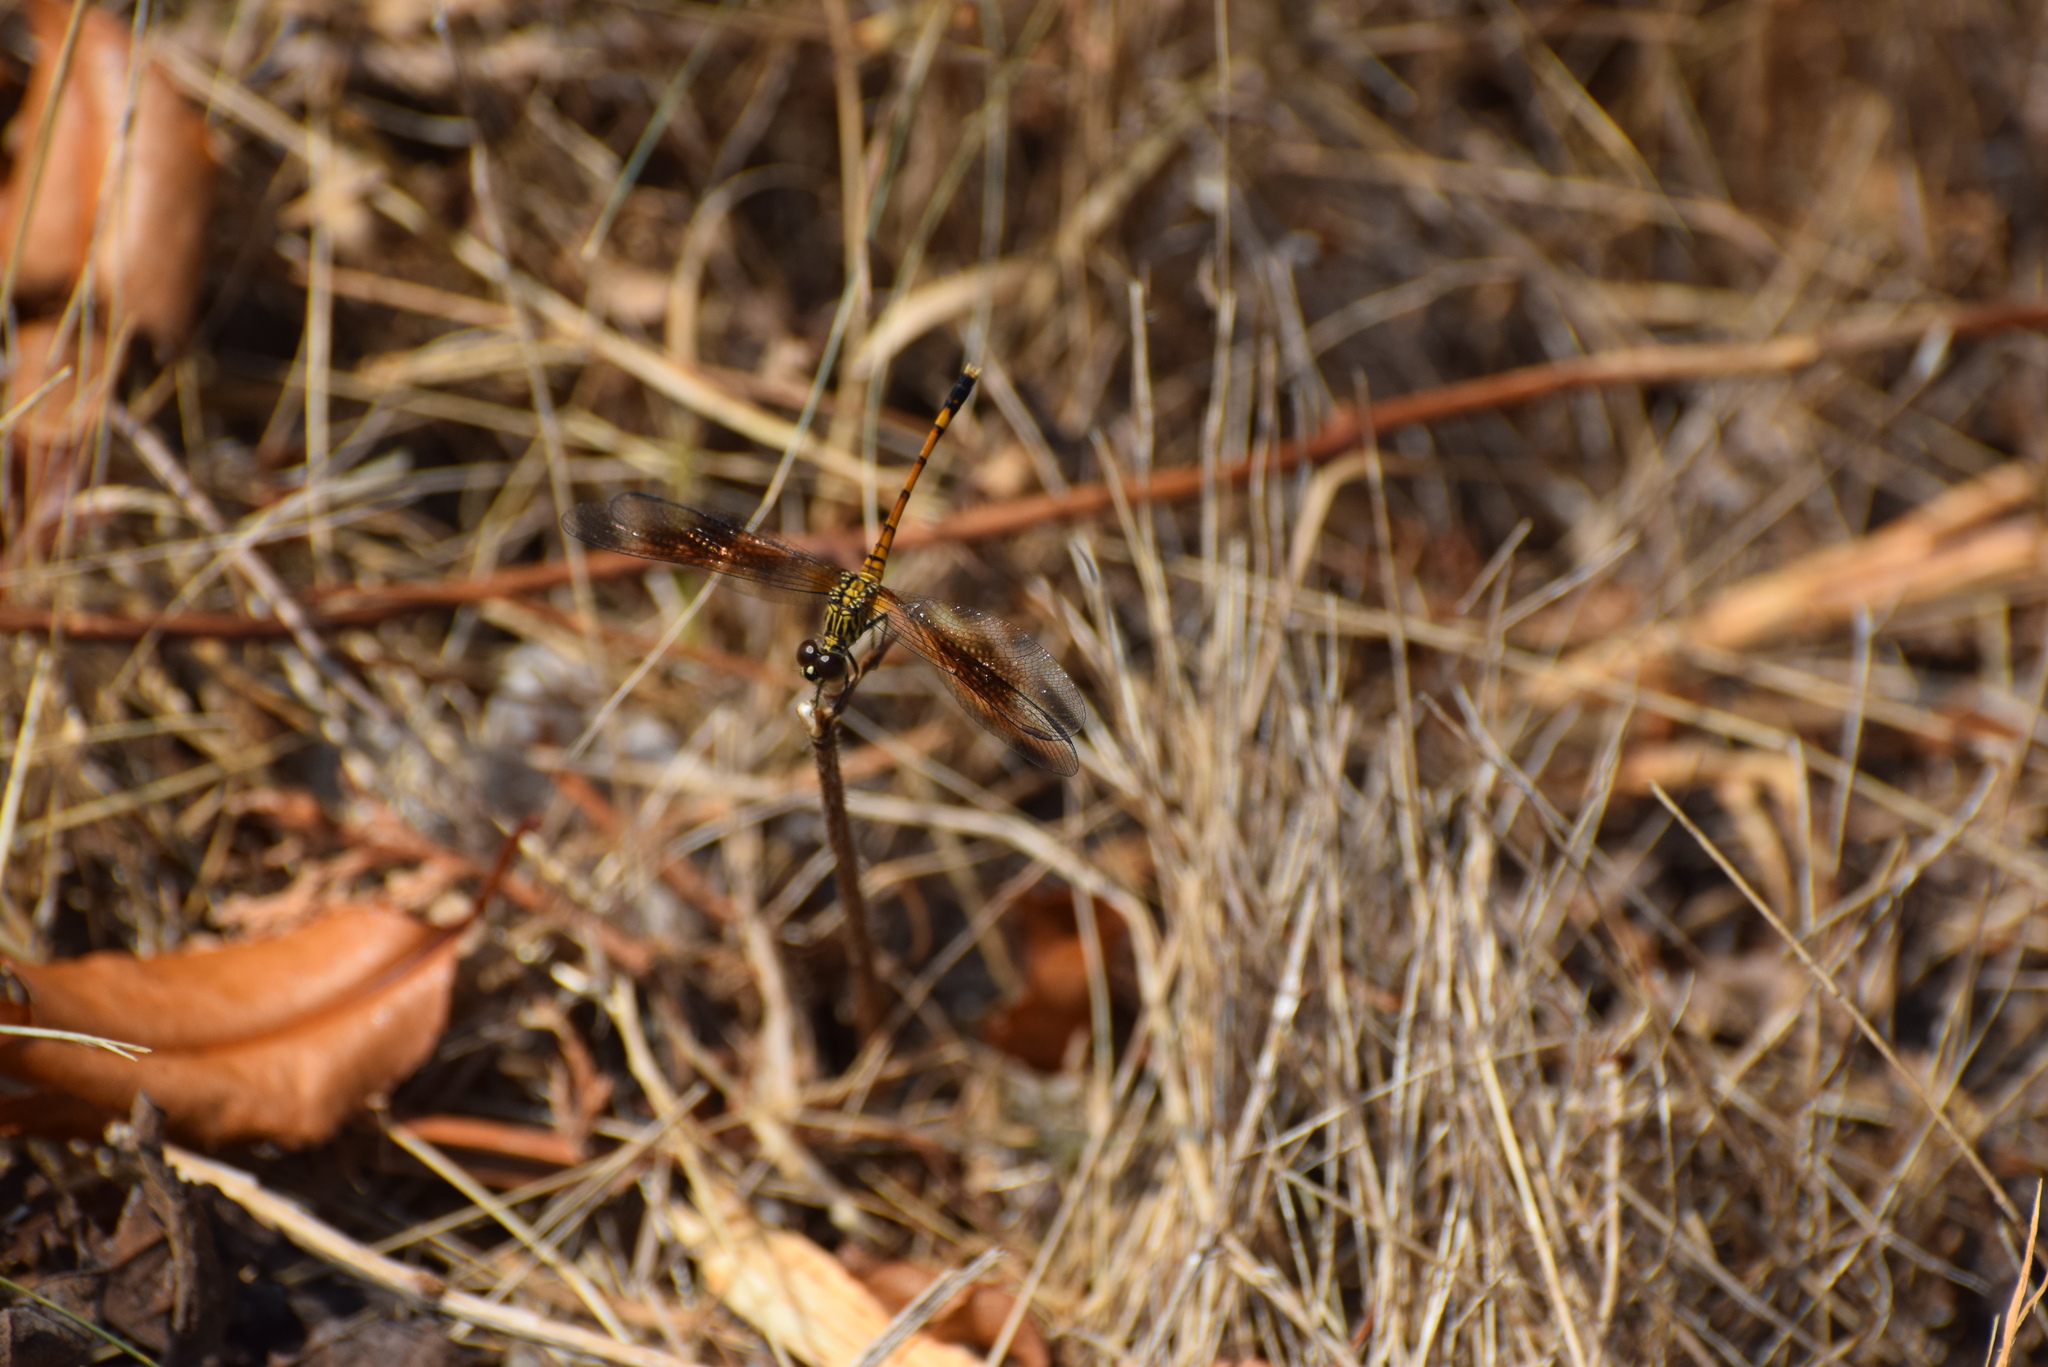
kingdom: Animalia
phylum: Arthropoda
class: Insecta
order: Odonata
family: Libellulidae
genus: Erythrodiplax
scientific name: Erythrodiplax berenice
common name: Seaside dragonlet
